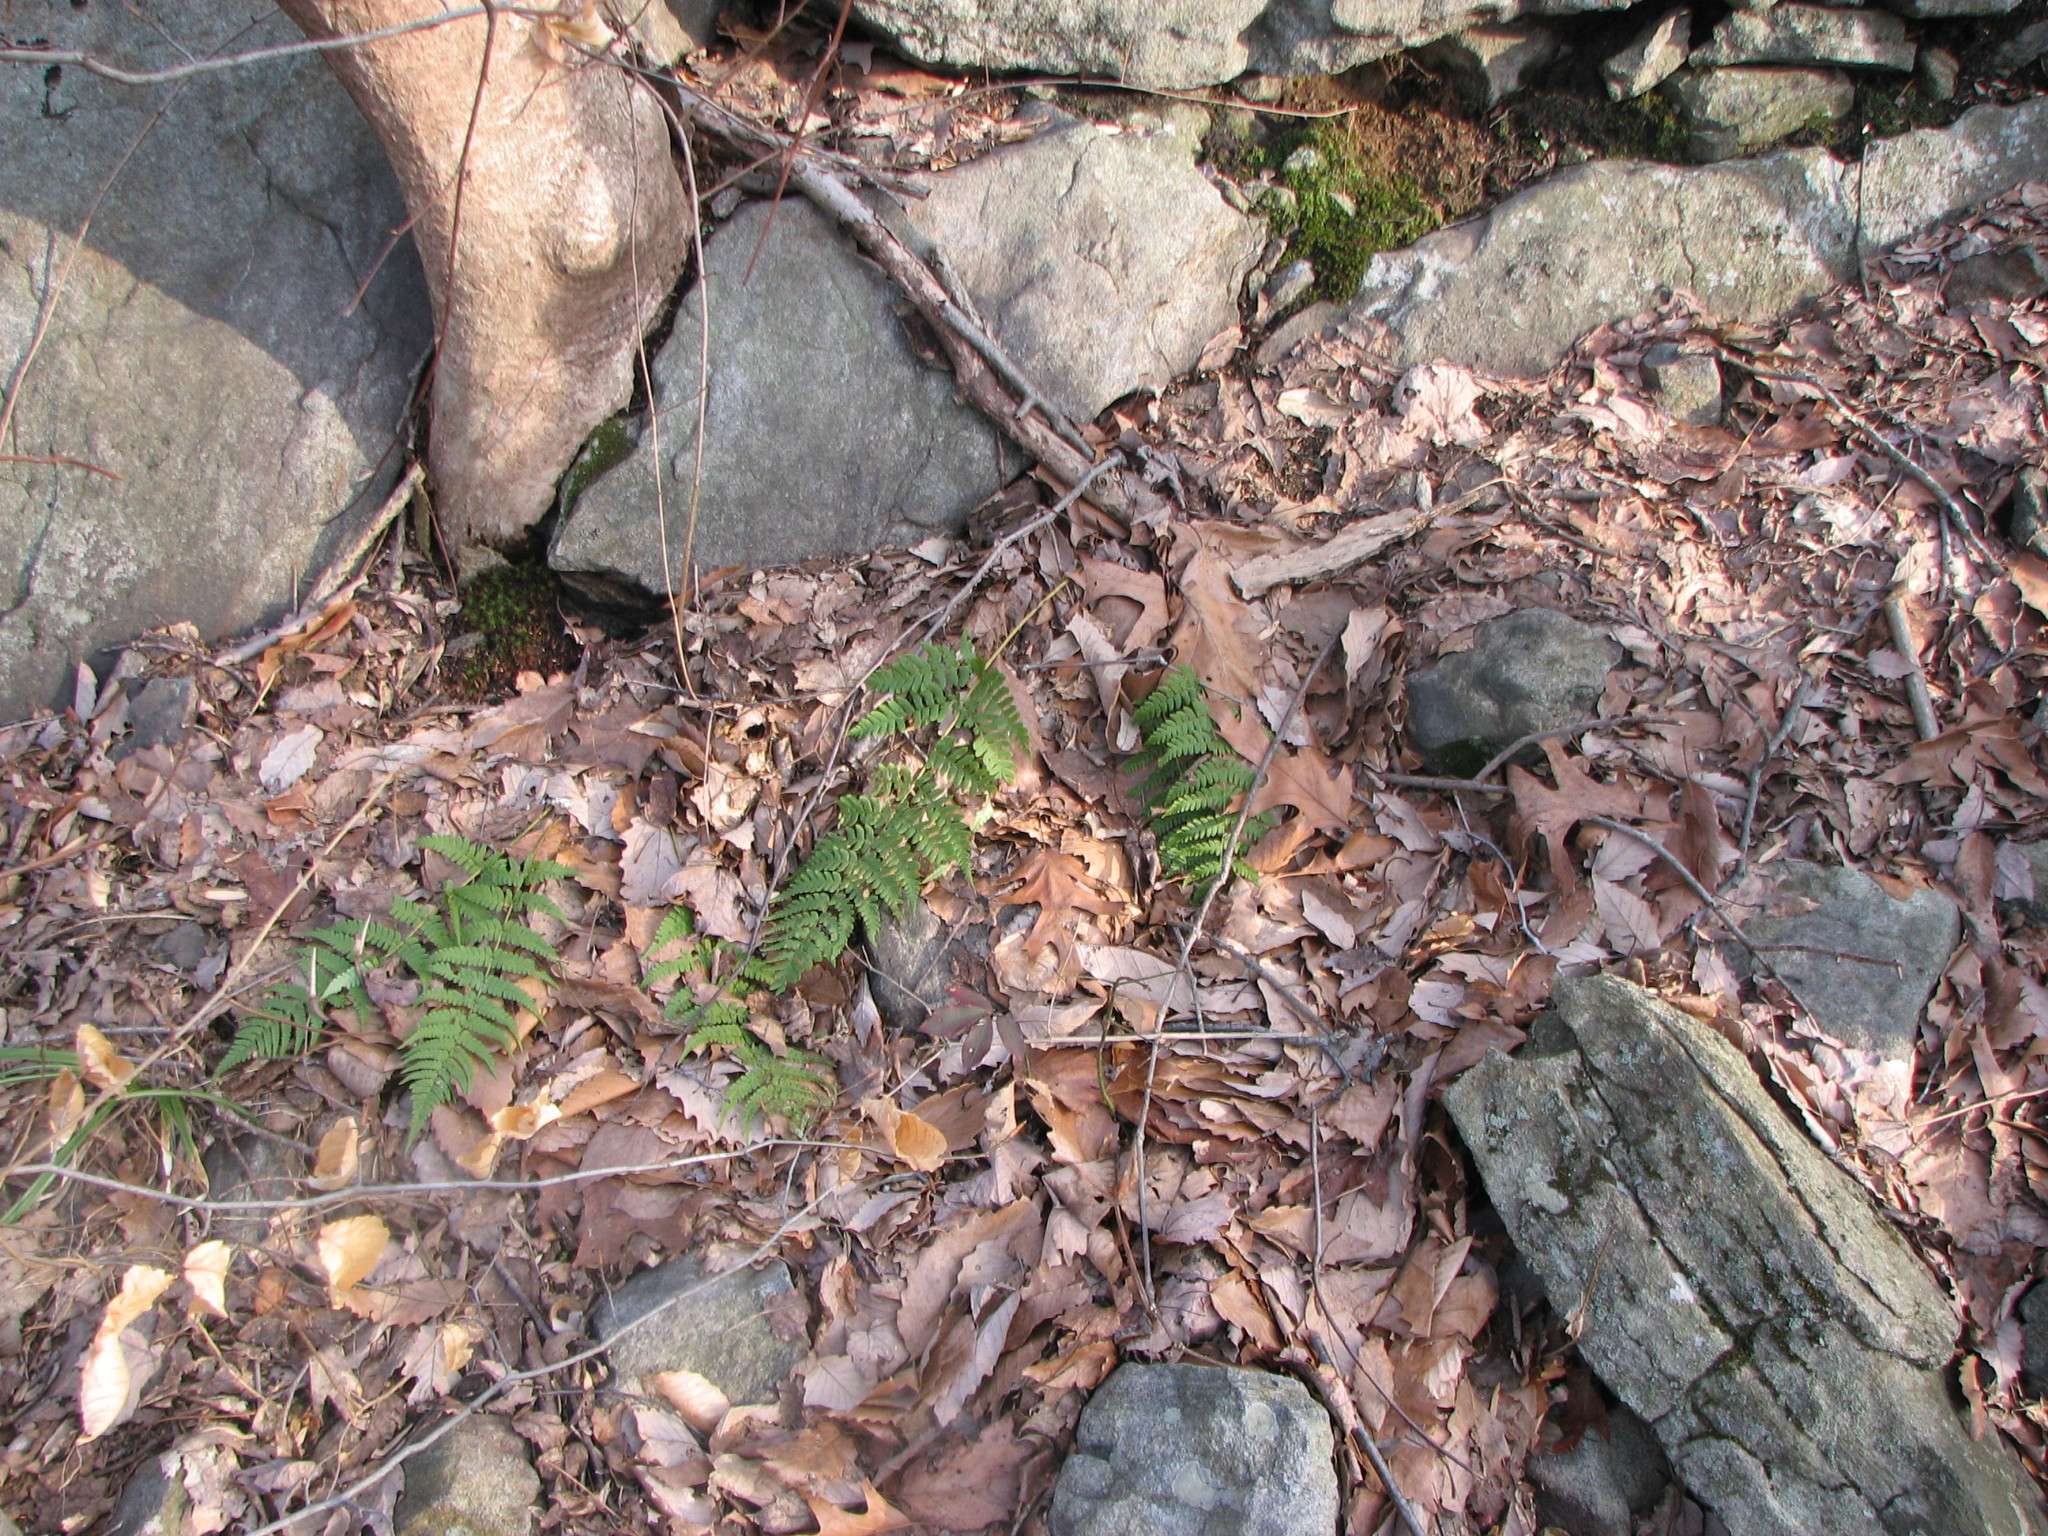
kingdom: Plantae
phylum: Tracheophyta
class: Polypodiopsida
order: Polypodiales
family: Dryopteridaceae
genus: Dryopteris
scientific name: Dryopteris marginalis
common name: Marginal wood fern
